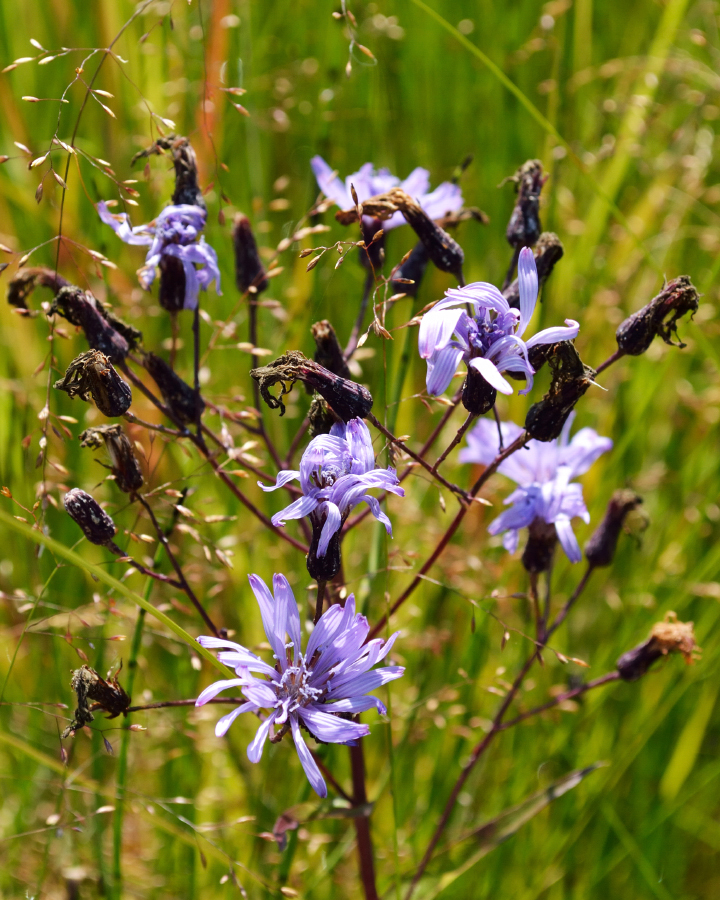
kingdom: Plantae
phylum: Tracheophyta
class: Magnoliopsida
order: Asterales
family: Asteraceae
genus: Lactuca
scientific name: Lactuca sibirica
